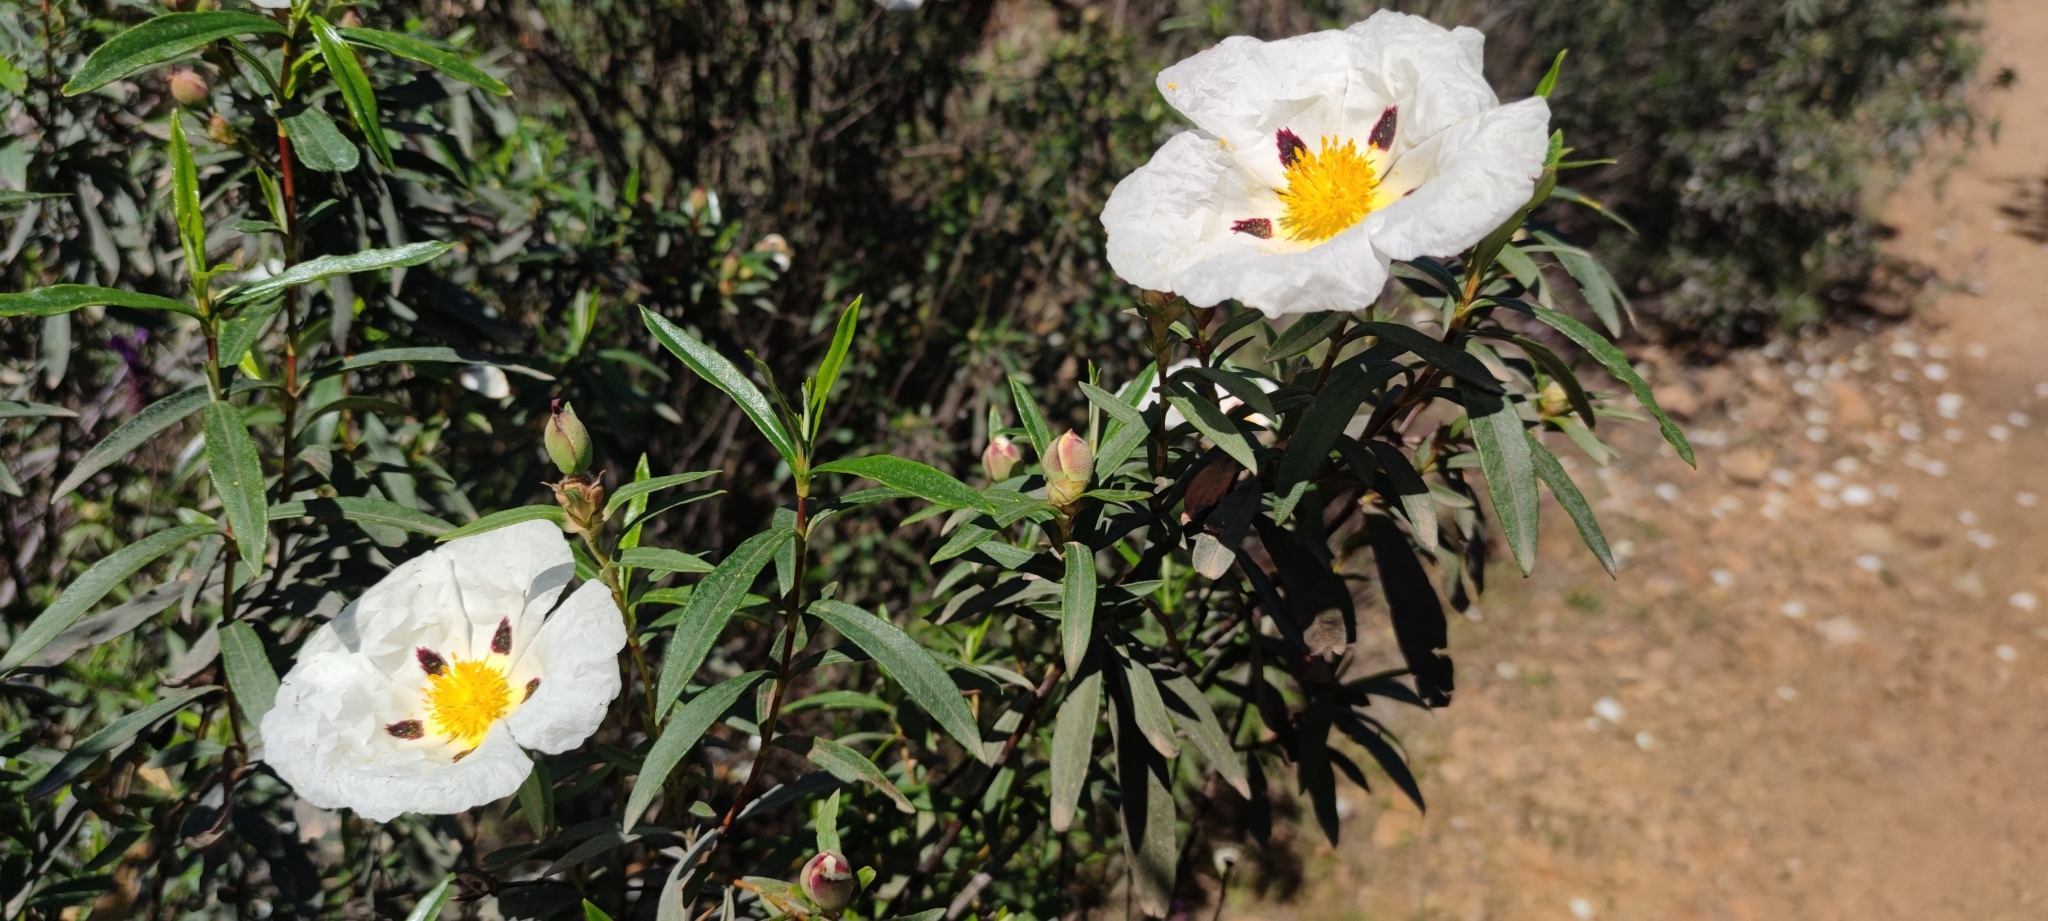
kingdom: Plantae
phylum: Tracheophyta
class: Magnoliopsida
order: Malvales
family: Cistaceae
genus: Cistus
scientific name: Cistus ladanifer
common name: Common gum cistus
